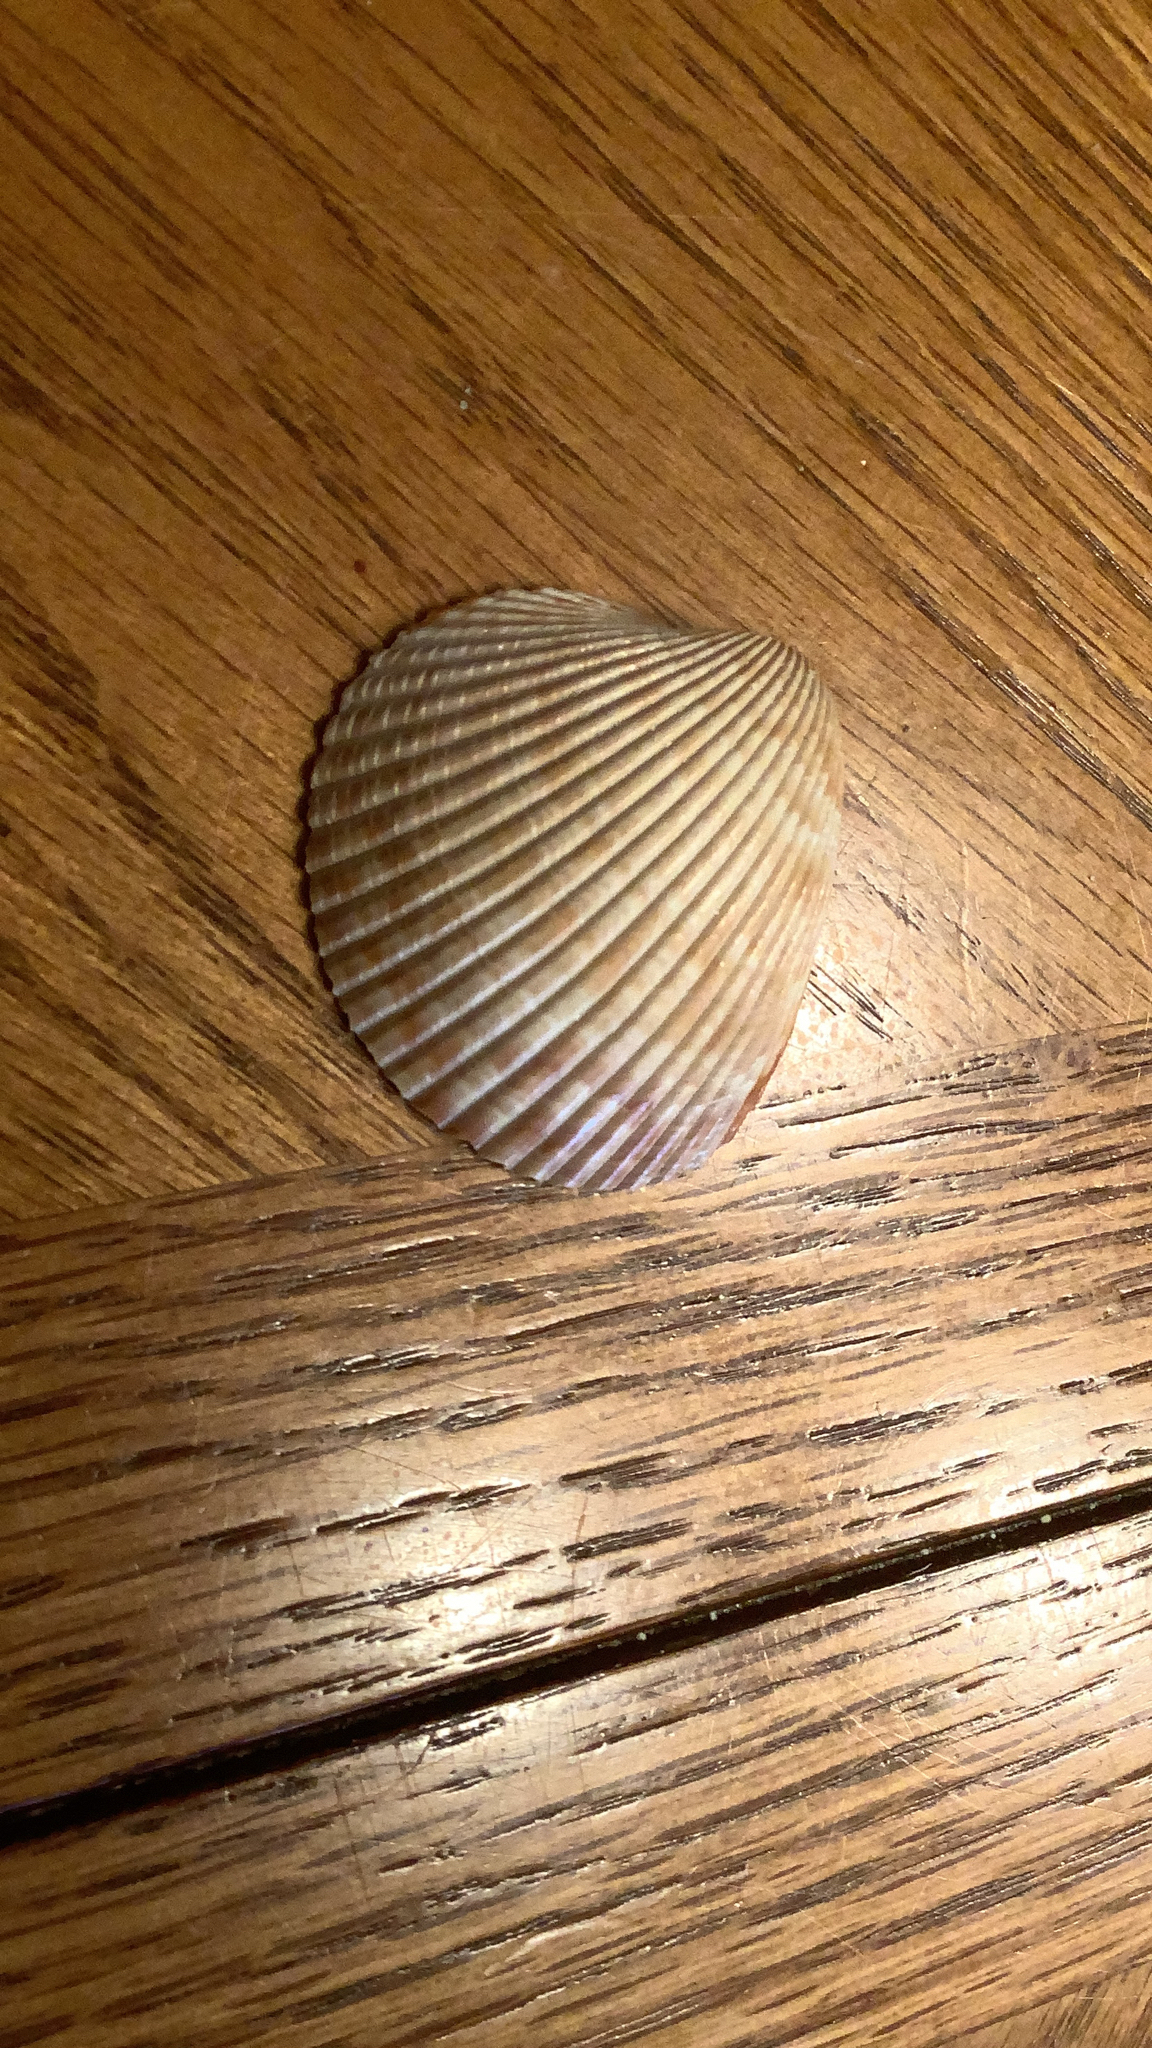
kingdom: Animalia
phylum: Mollusca
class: Bivalvia
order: Cardiida
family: Cardiidae
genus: Dinocardium
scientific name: Dinocardium robustum
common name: Atlantic giant cockle
